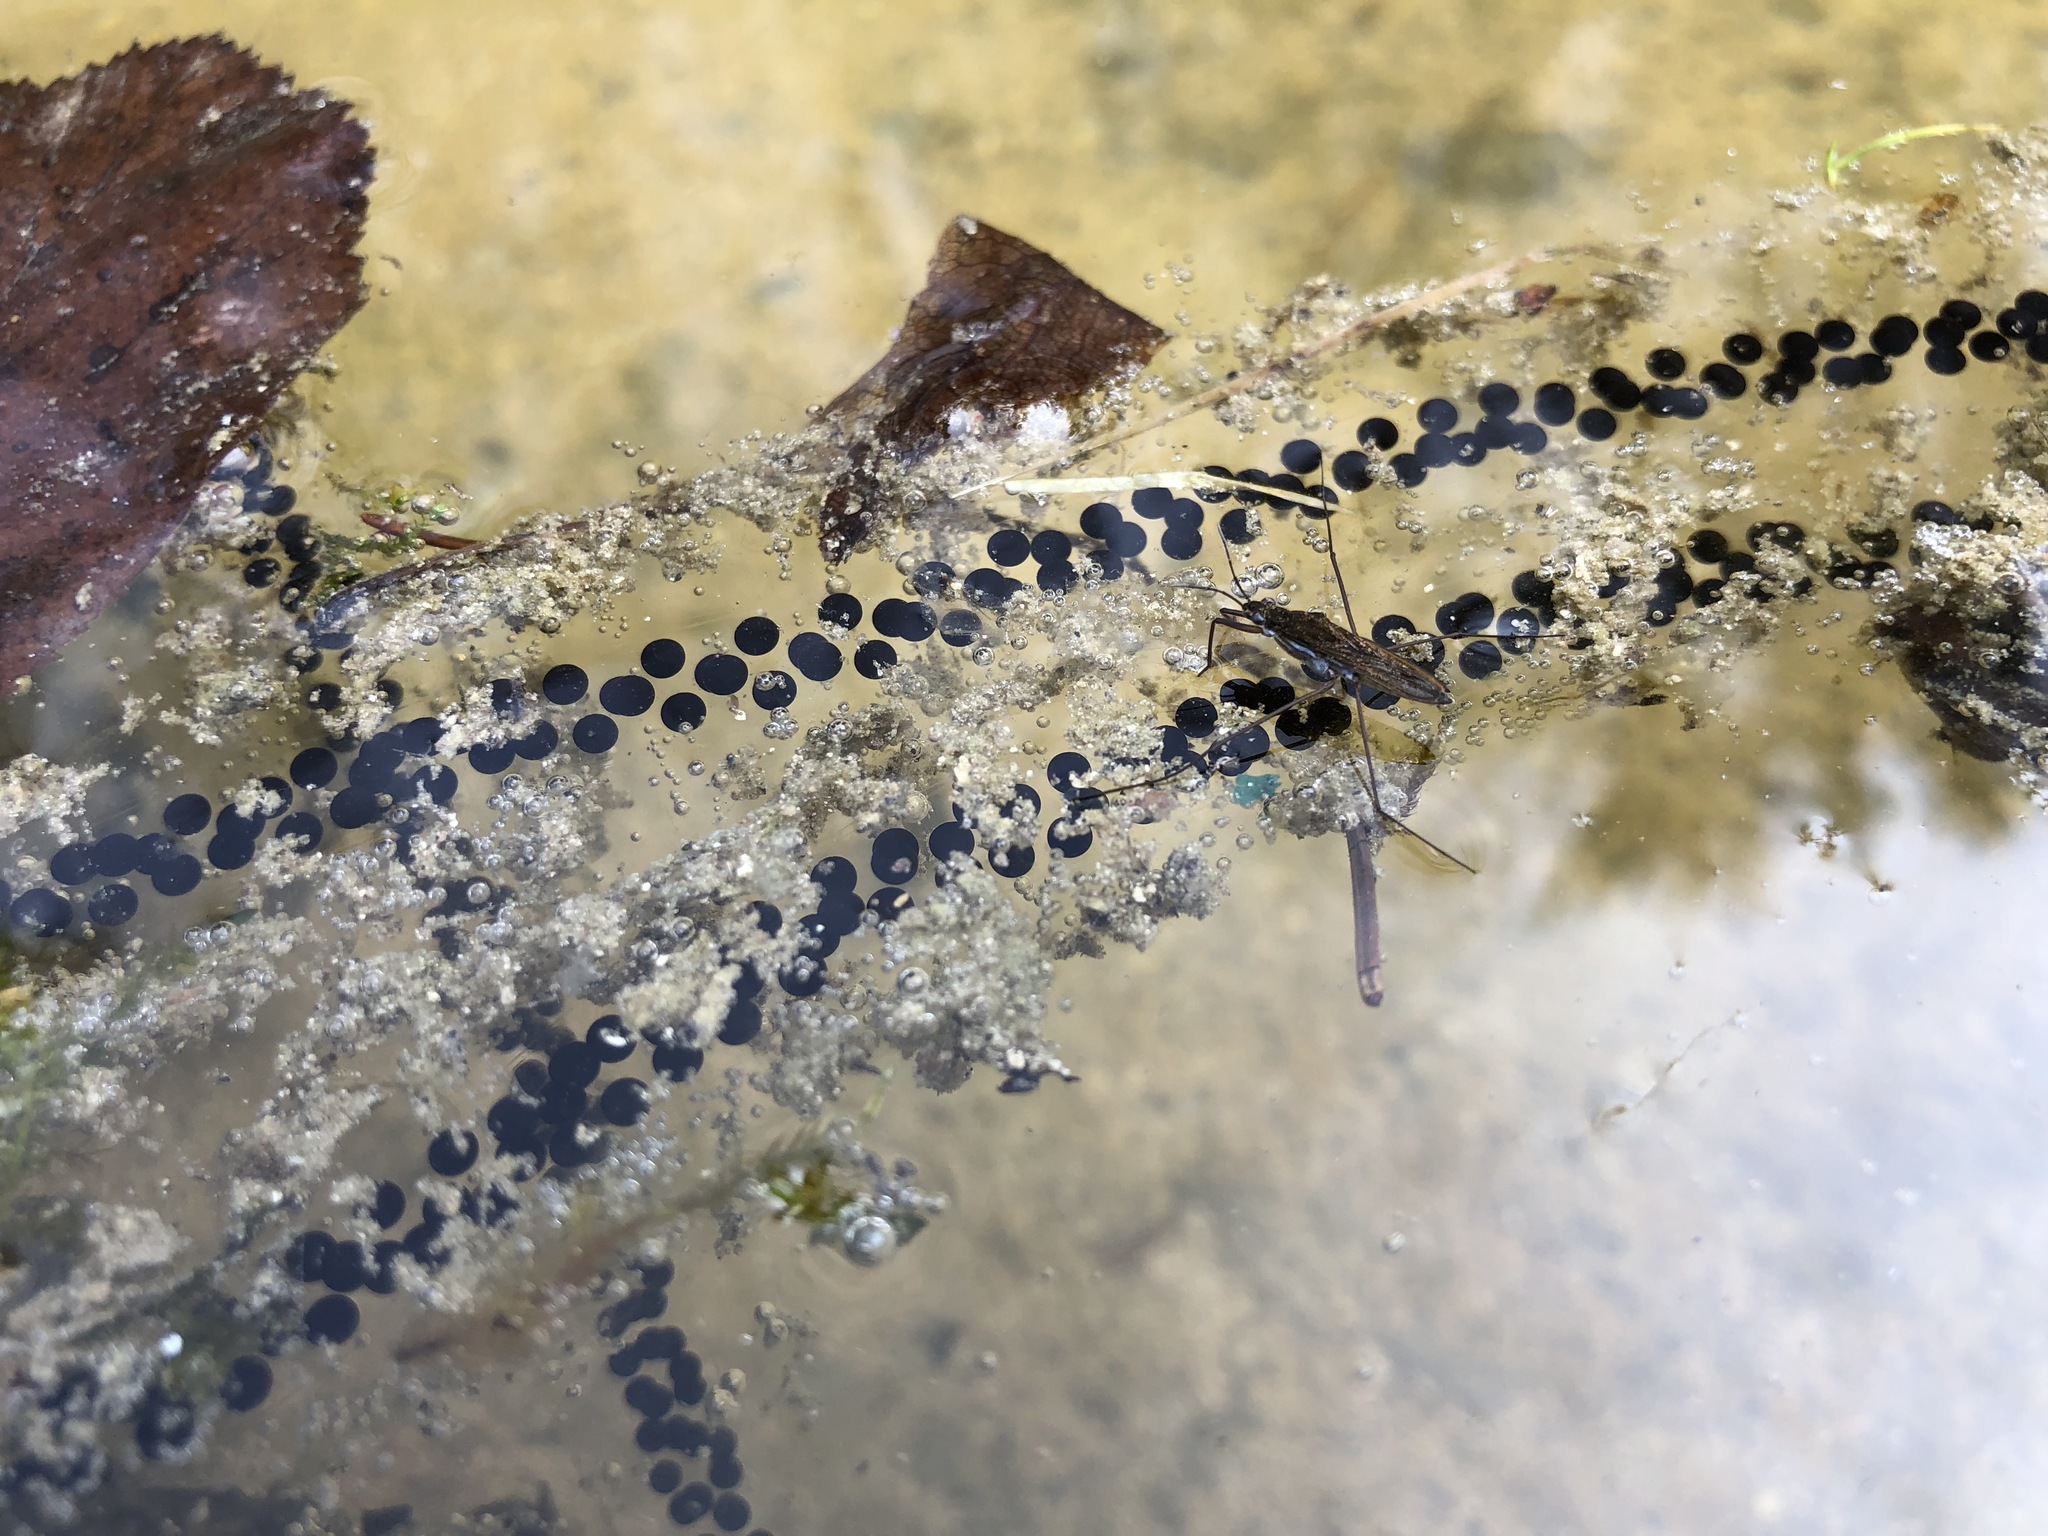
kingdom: Animalia
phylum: Arthropoda
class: Insecta
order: Hemiptera
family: Gerridae
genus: Gerris
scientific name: Gerris lacustris
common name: Common pondskater
